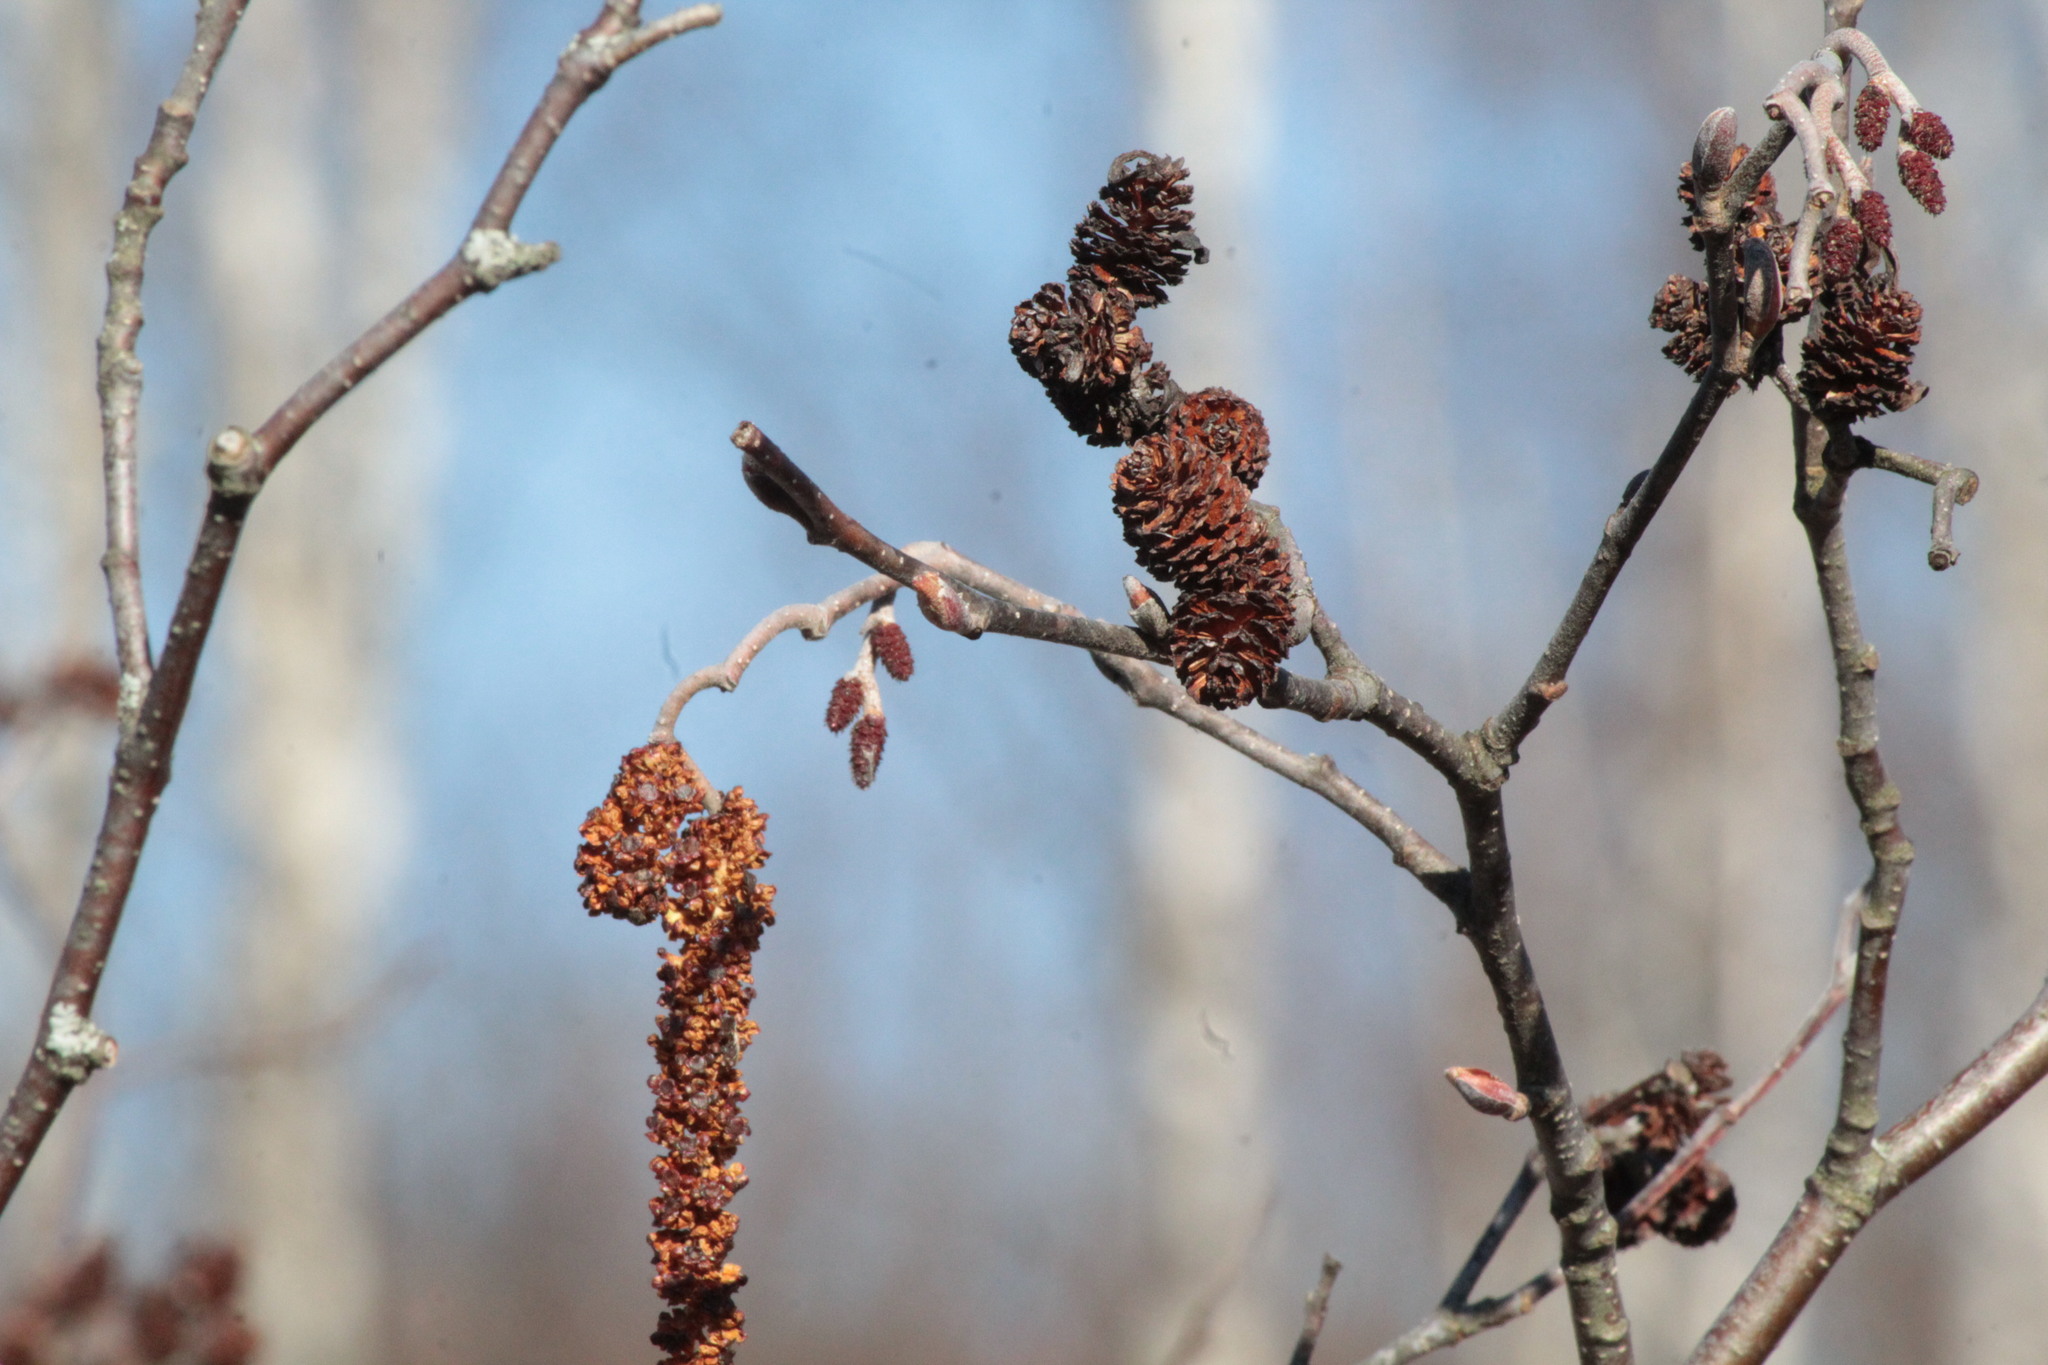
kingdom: Plantae
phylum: Tracheophyta
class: Magnoliopsida
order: Fagales
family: Betulaceae
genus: Alnus
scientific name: Alnus incana
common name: Grey alder
